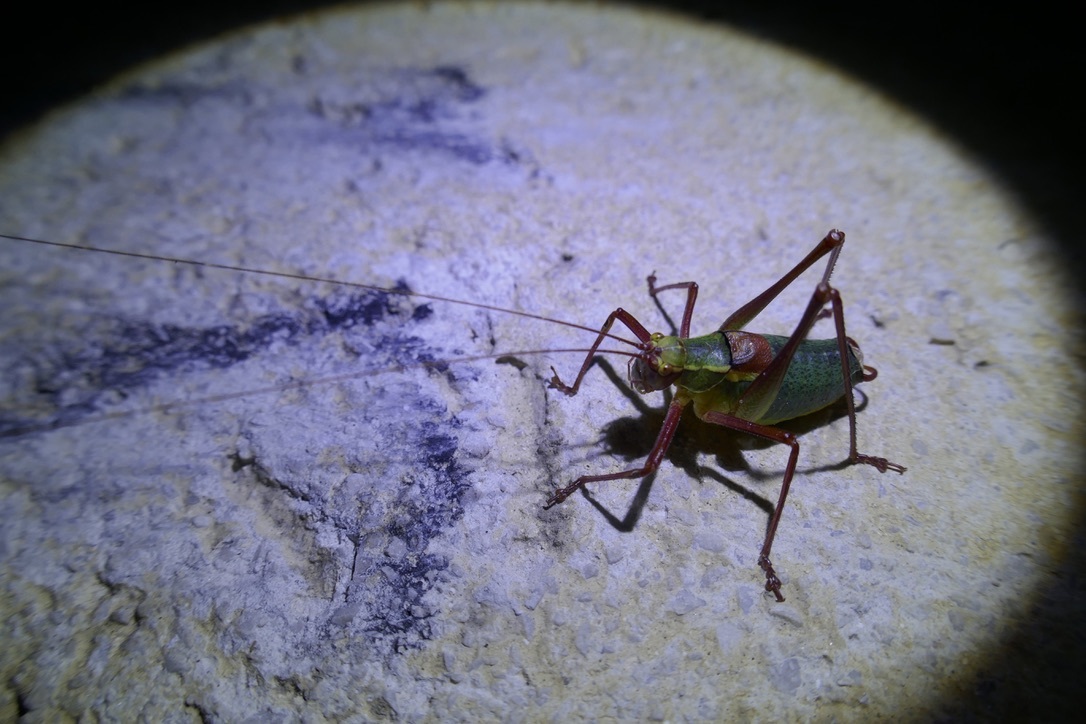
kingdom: Animalia
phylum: Arthropoda
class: Insecta
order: Orthoptera
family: Tettigoniidae
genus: Barbitistes
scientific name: Barbitistes serricauda
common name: Saw-tailed bush-cricket
